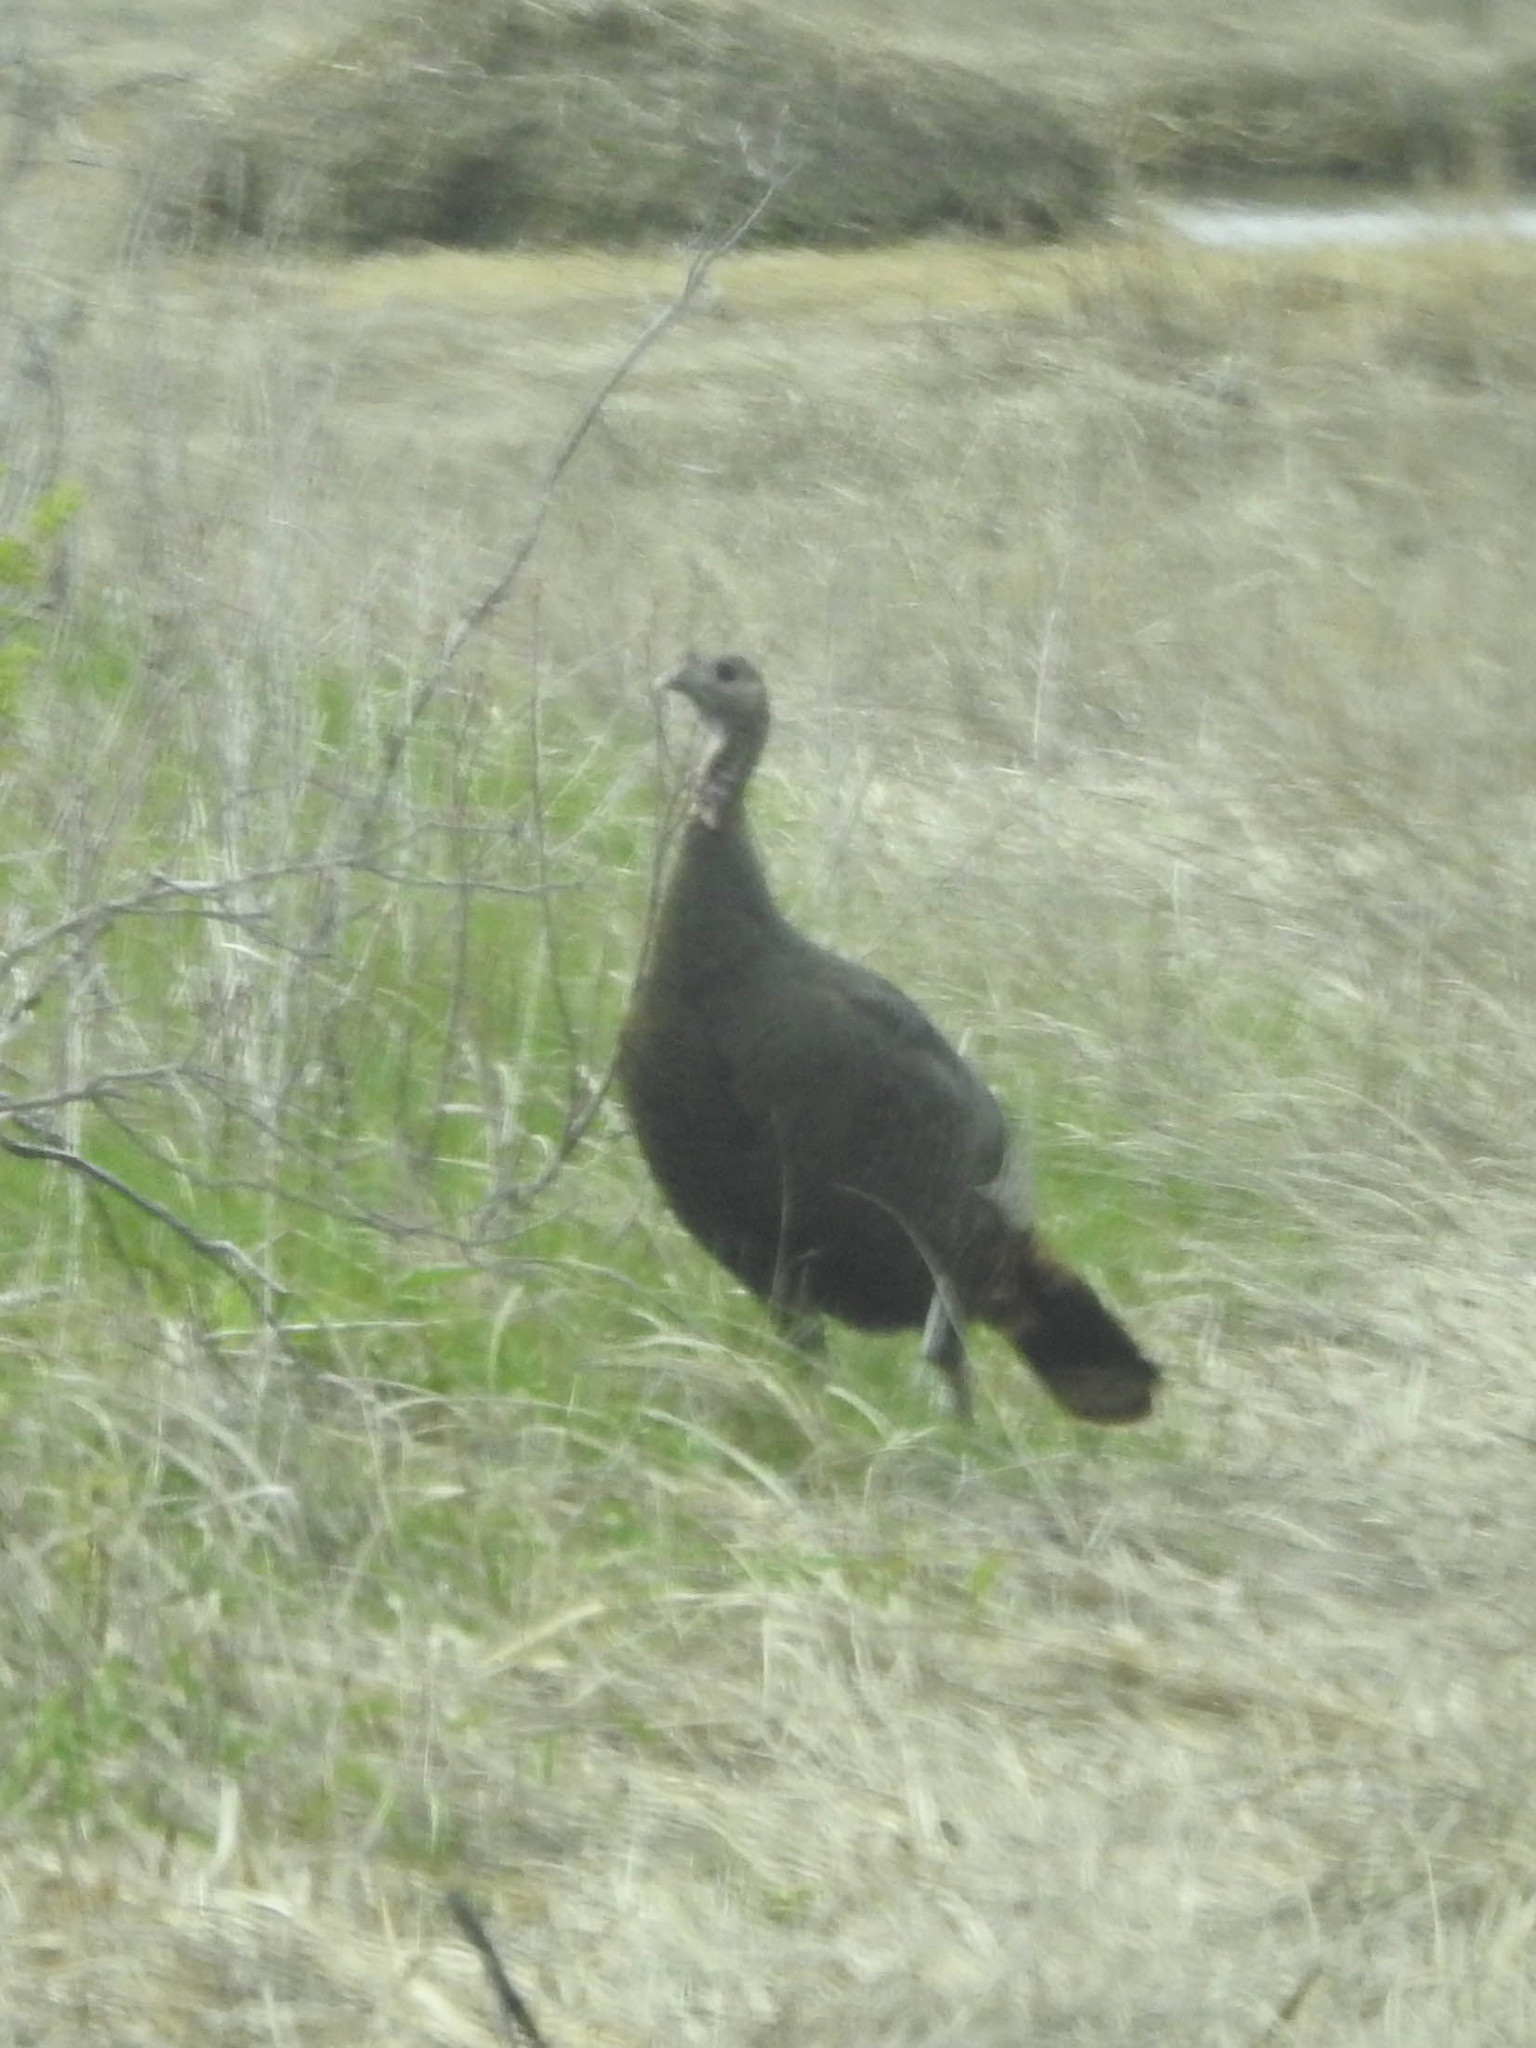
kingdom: Animalia
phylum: Chordata
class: Aves
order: Galliformes
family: Phasianidae
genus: Meleagris
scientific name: Meleagris gallopavo
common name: Wild turkey
